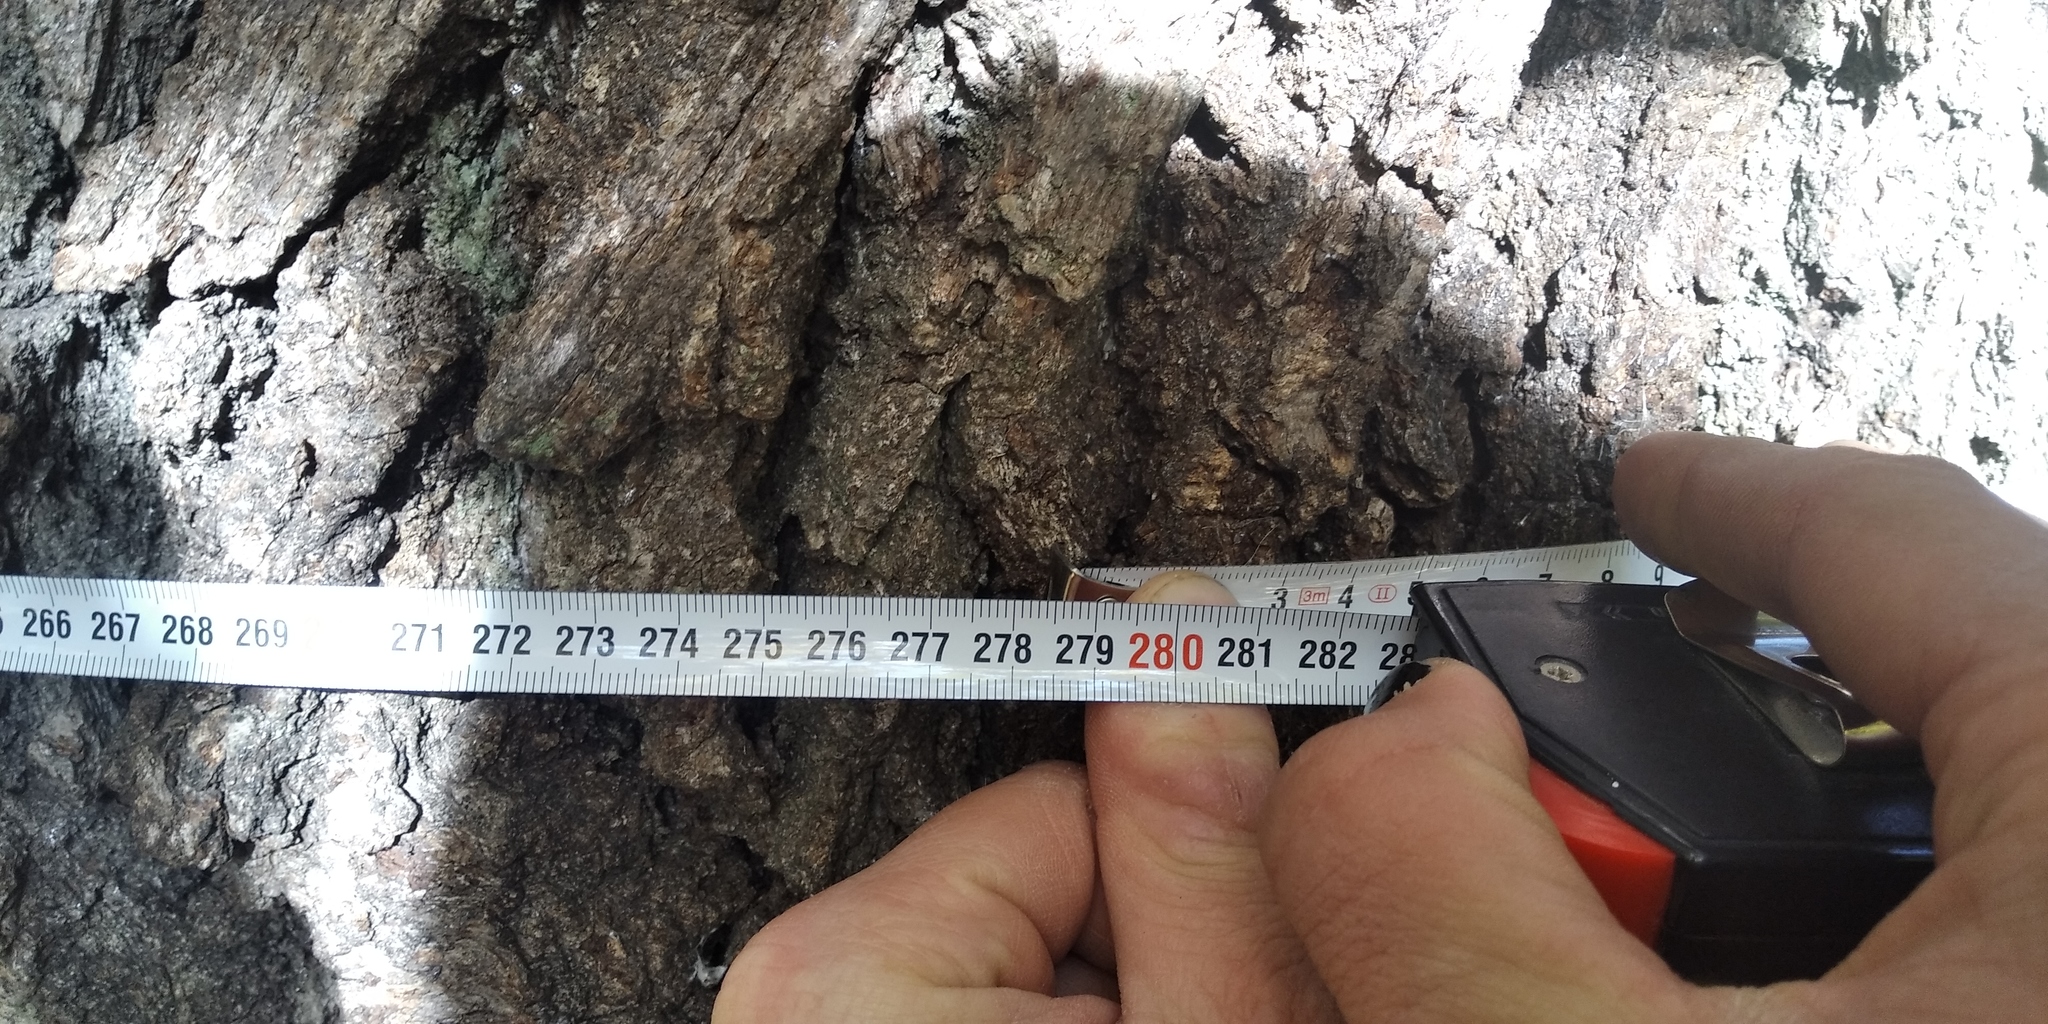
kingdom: Plantae
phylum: Tracheophyta
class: Magnoliopsida
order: Fagales
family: Fagaceae
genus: Quercus
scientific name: Quercus robur
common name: Pedunculate oak
